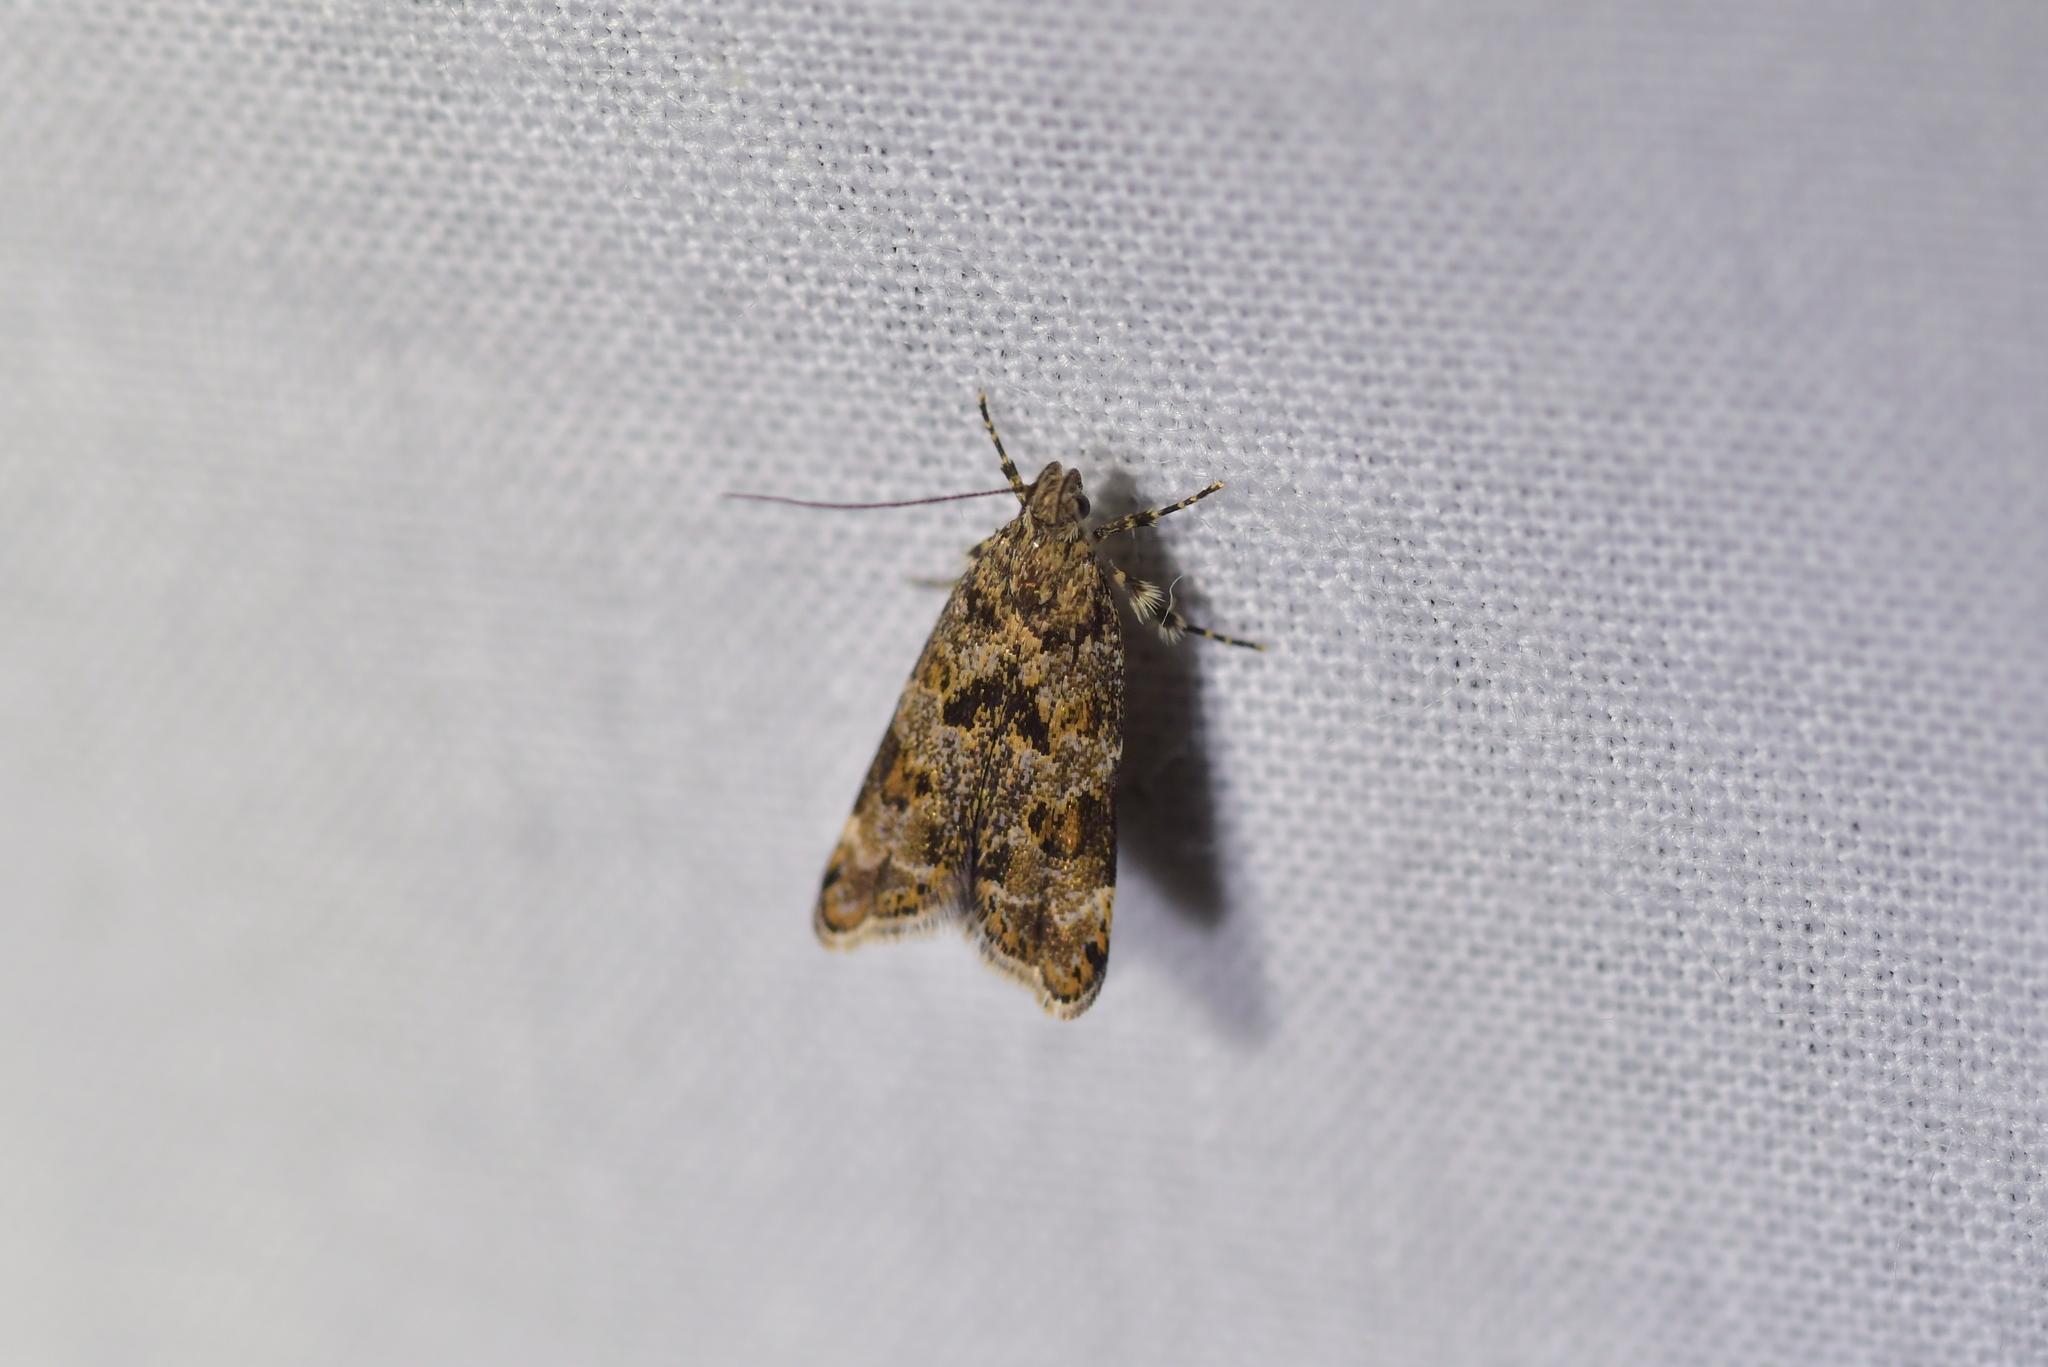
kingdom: Animalia
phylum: Arthropoda
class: Insecta
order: Lepidoptera
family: Oecophoridae
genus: Gymnobathra
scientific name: Gymnobathra omphalota
